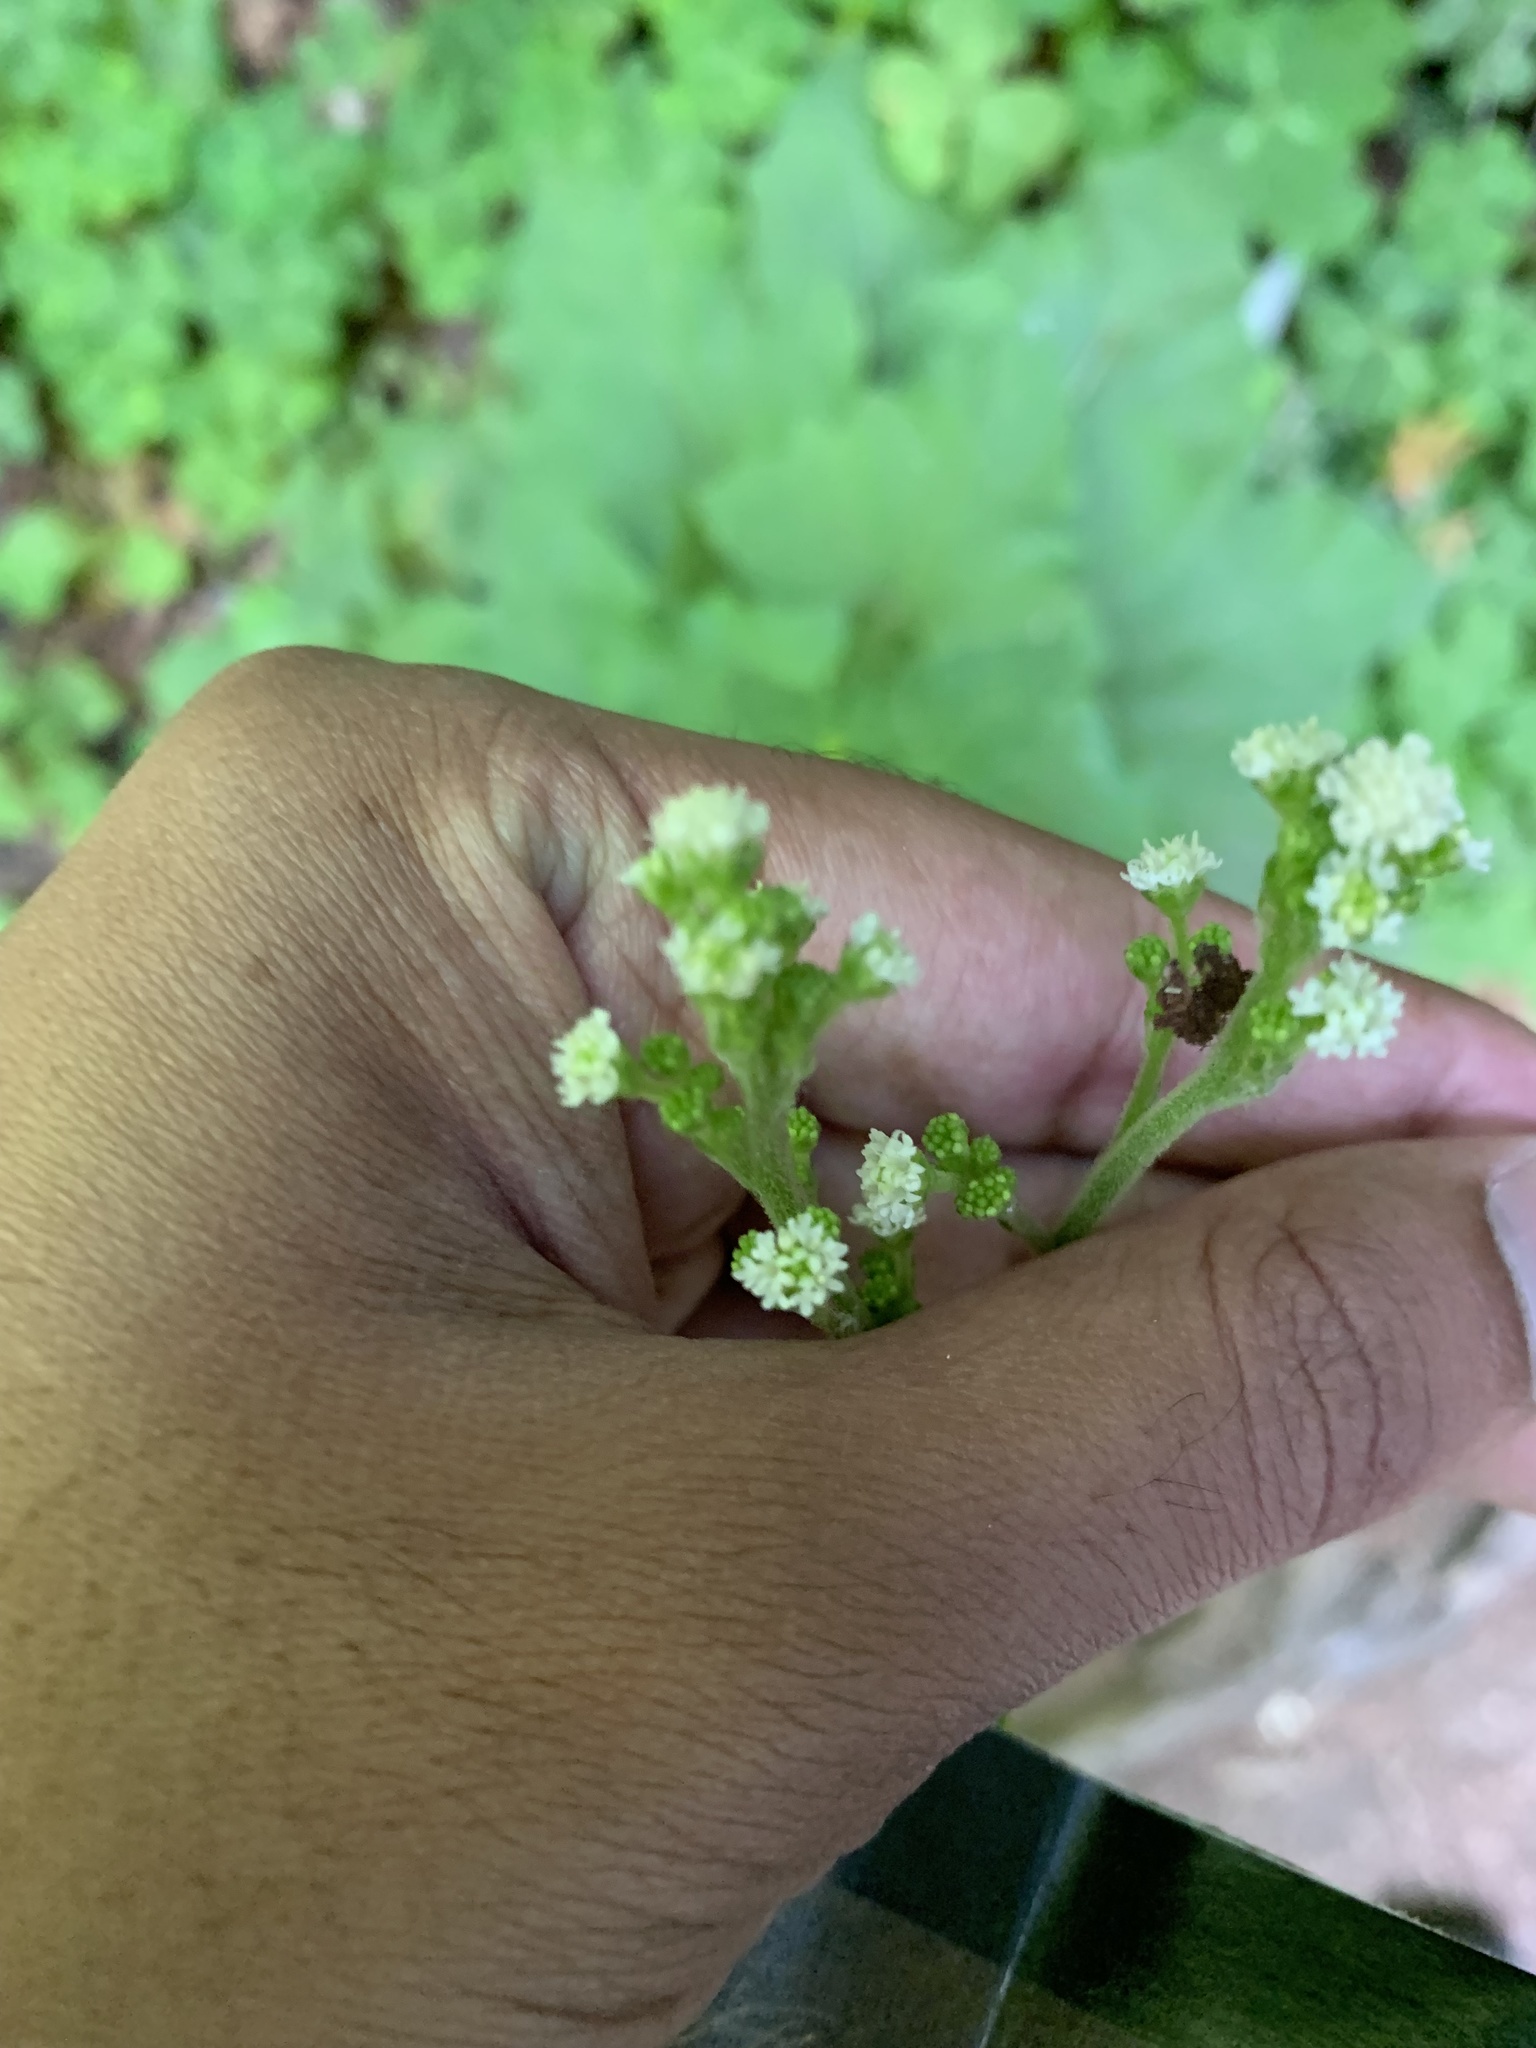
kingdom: Plantae
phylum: Tracheophyta
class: Magnoliopsida
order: Asterales
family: Asteraceae
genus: Adenocaulon
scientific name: Adenocaulon bicolor
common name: Trailplant
